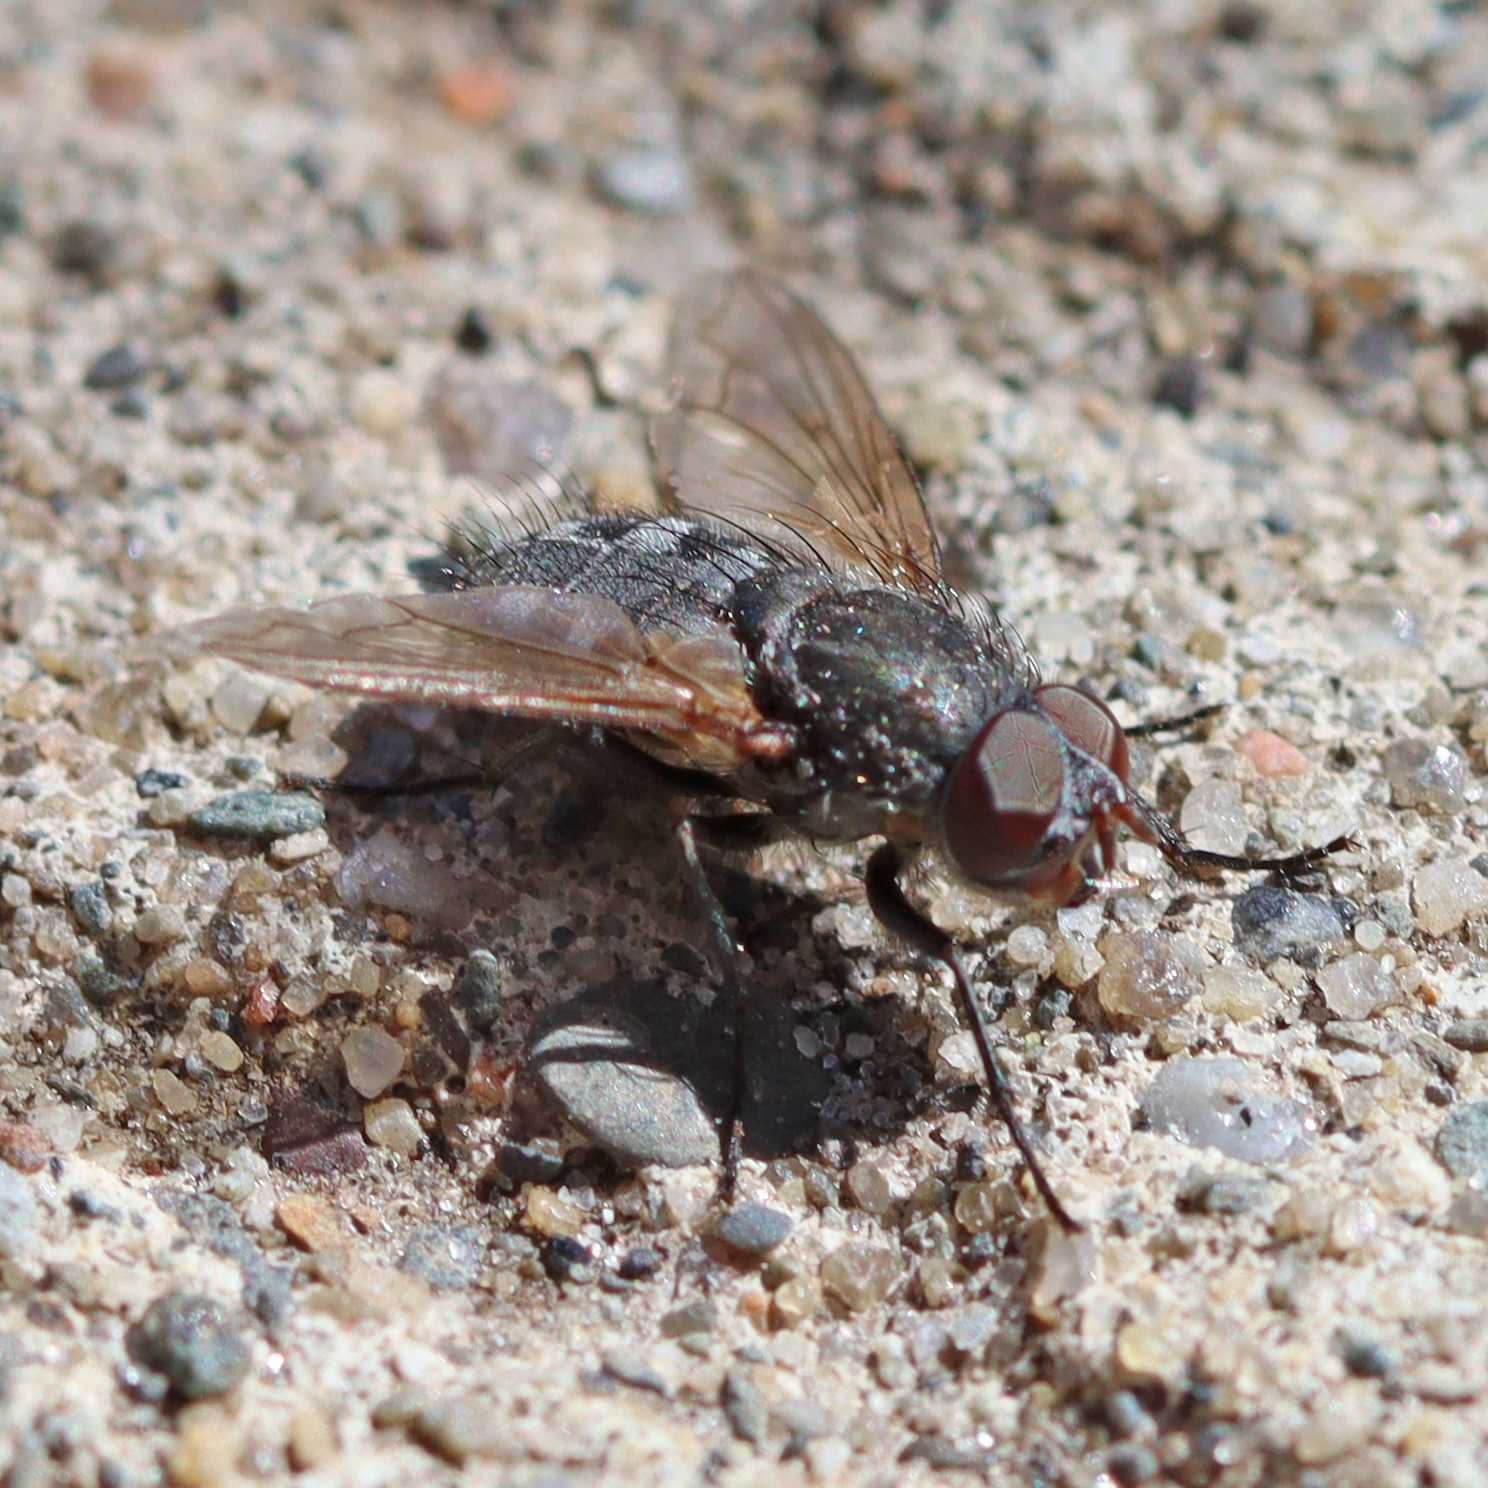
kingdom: Animalia
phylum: Arthropoda
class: Insecta
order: Diptera
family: Polleniidae
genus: Pollenia
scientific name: Pollenia
